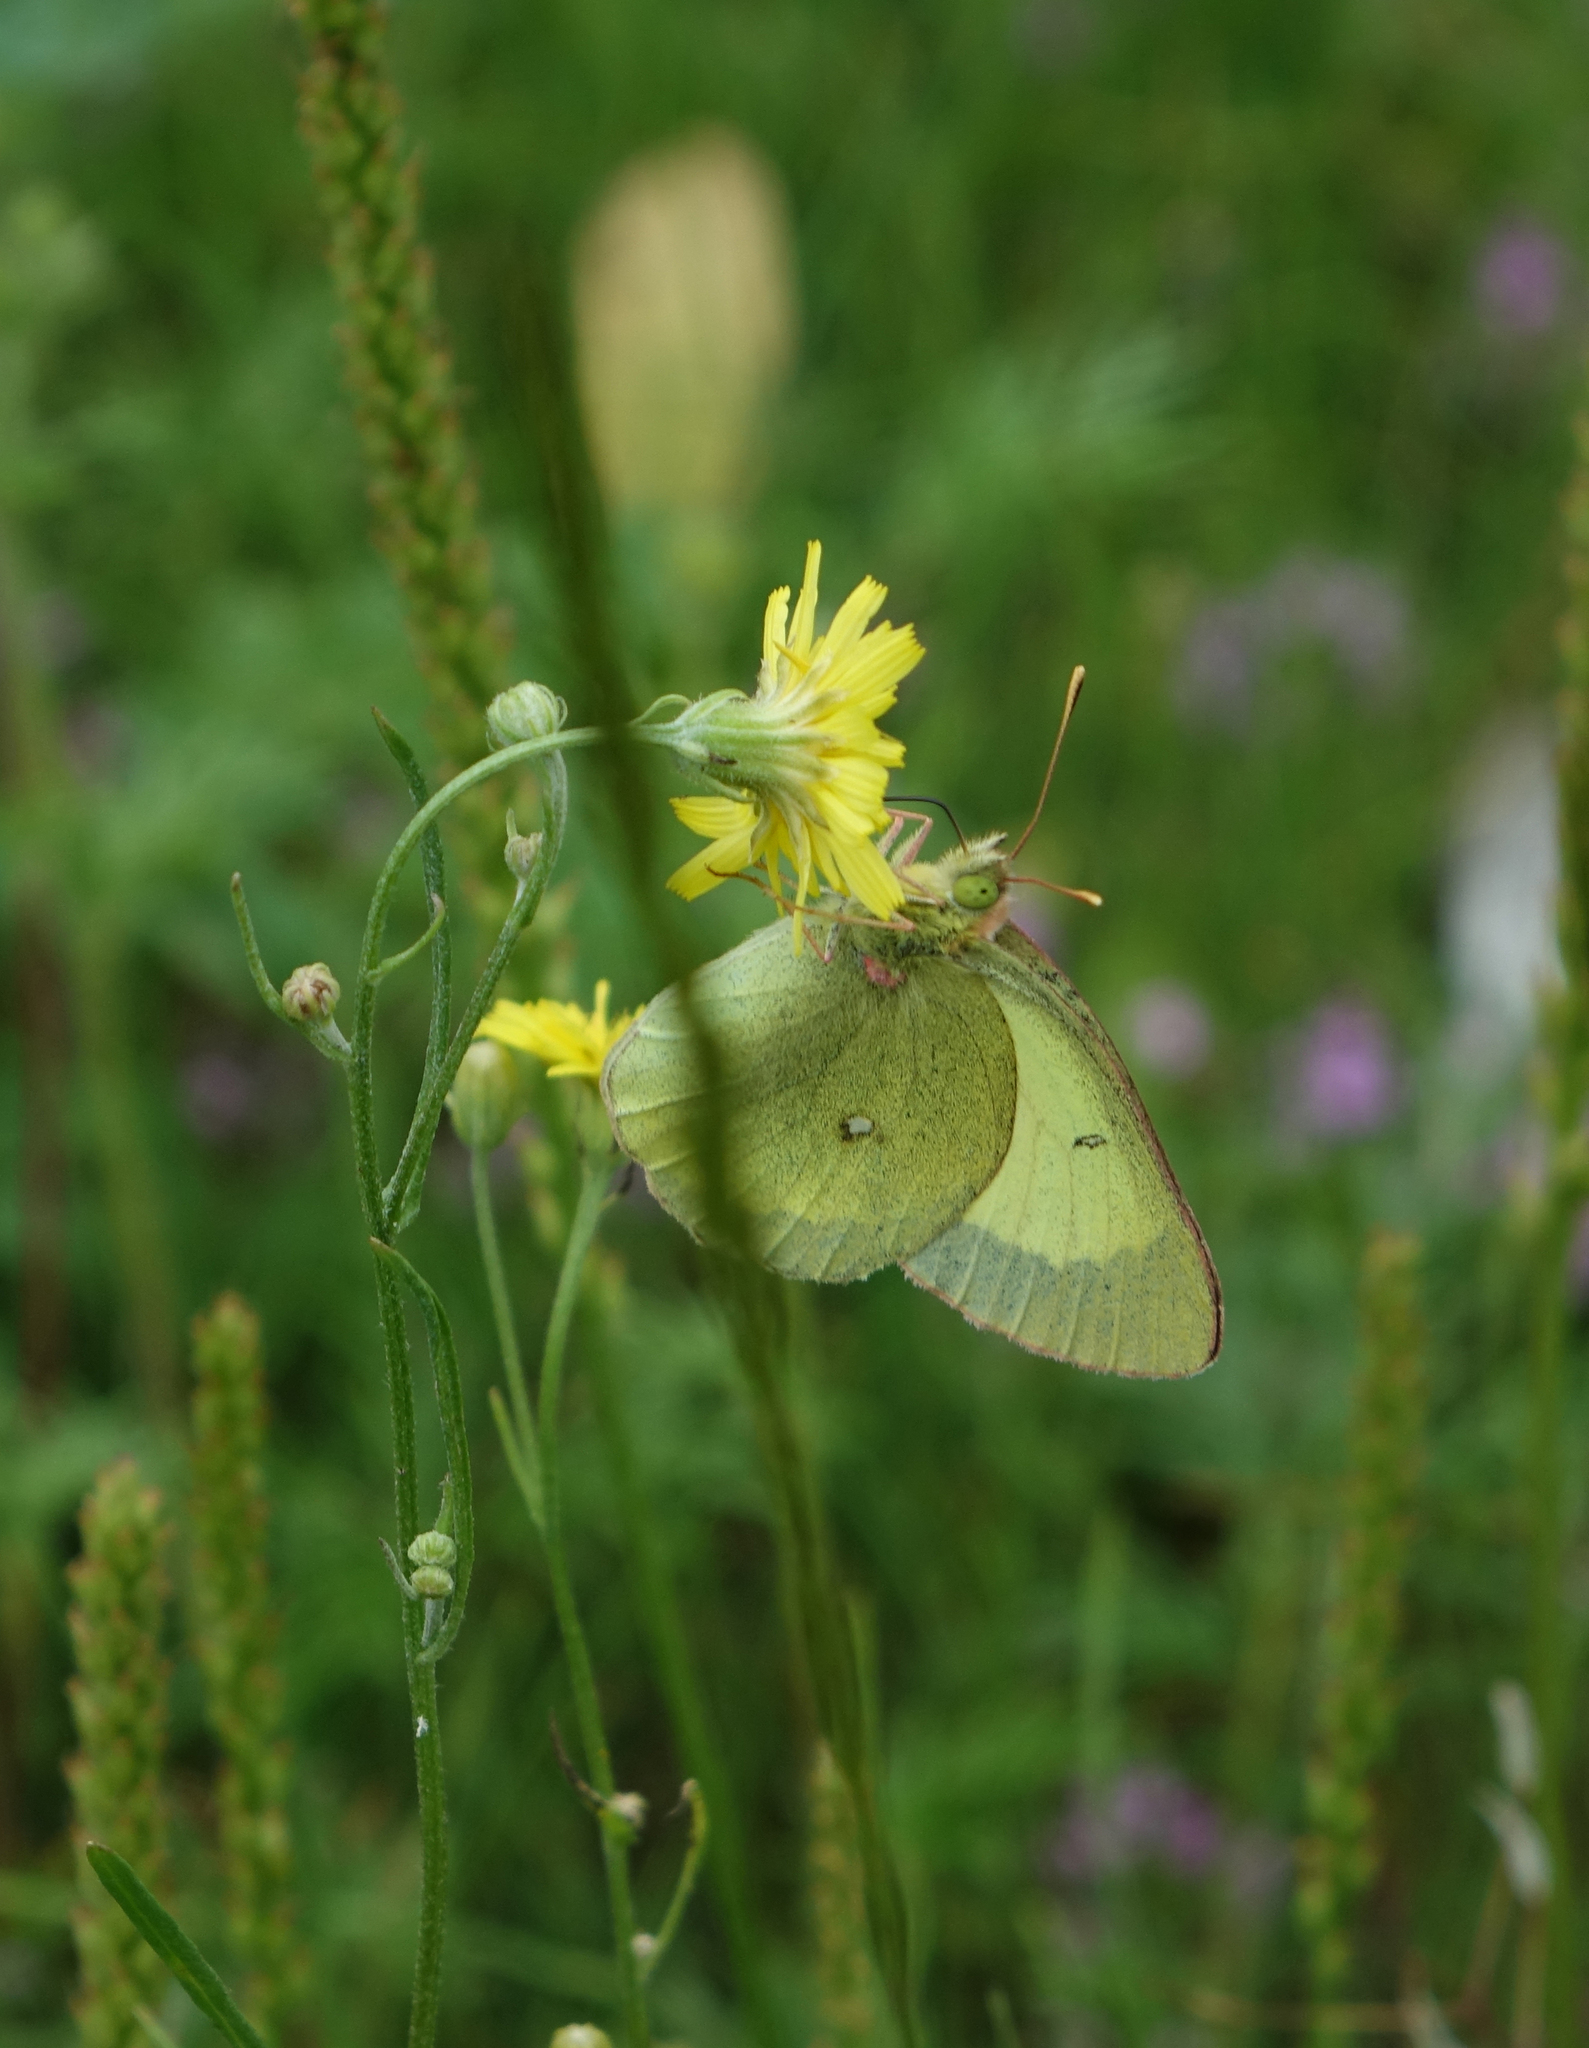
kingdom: Plantae
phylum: Tracheophyta
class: Magnoliopsida
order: Asterales
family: Asteraceae
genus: Crepis
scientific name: Crepis tectorum
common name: Narrow-leaved hawk's-beard
